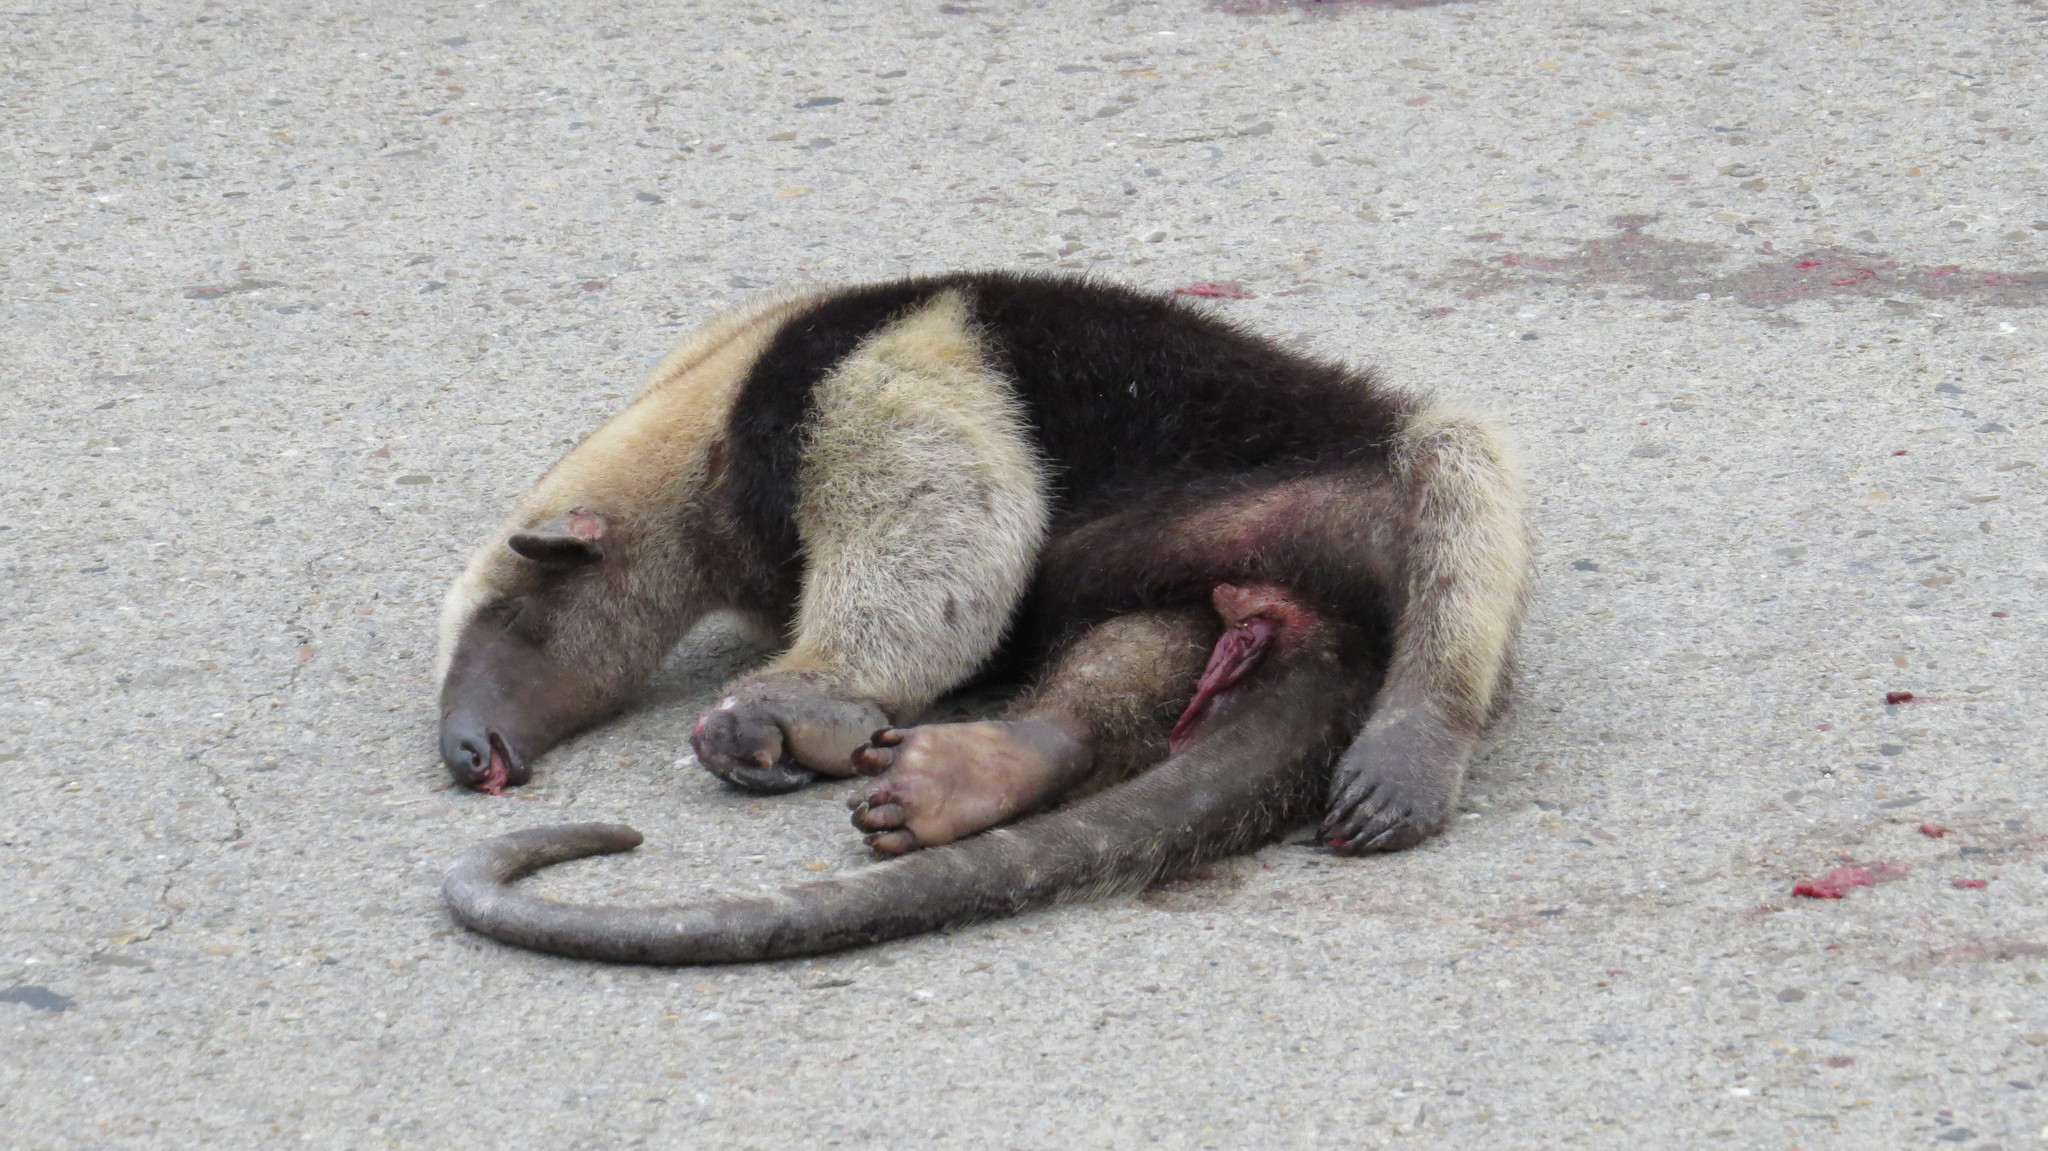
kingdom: Animalia
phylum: Chordata
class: Mammalia
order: Pilosa
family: Myrmecophagidae
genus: Tamandua
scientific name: Tamandua mexicana
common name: Northern tamandua
